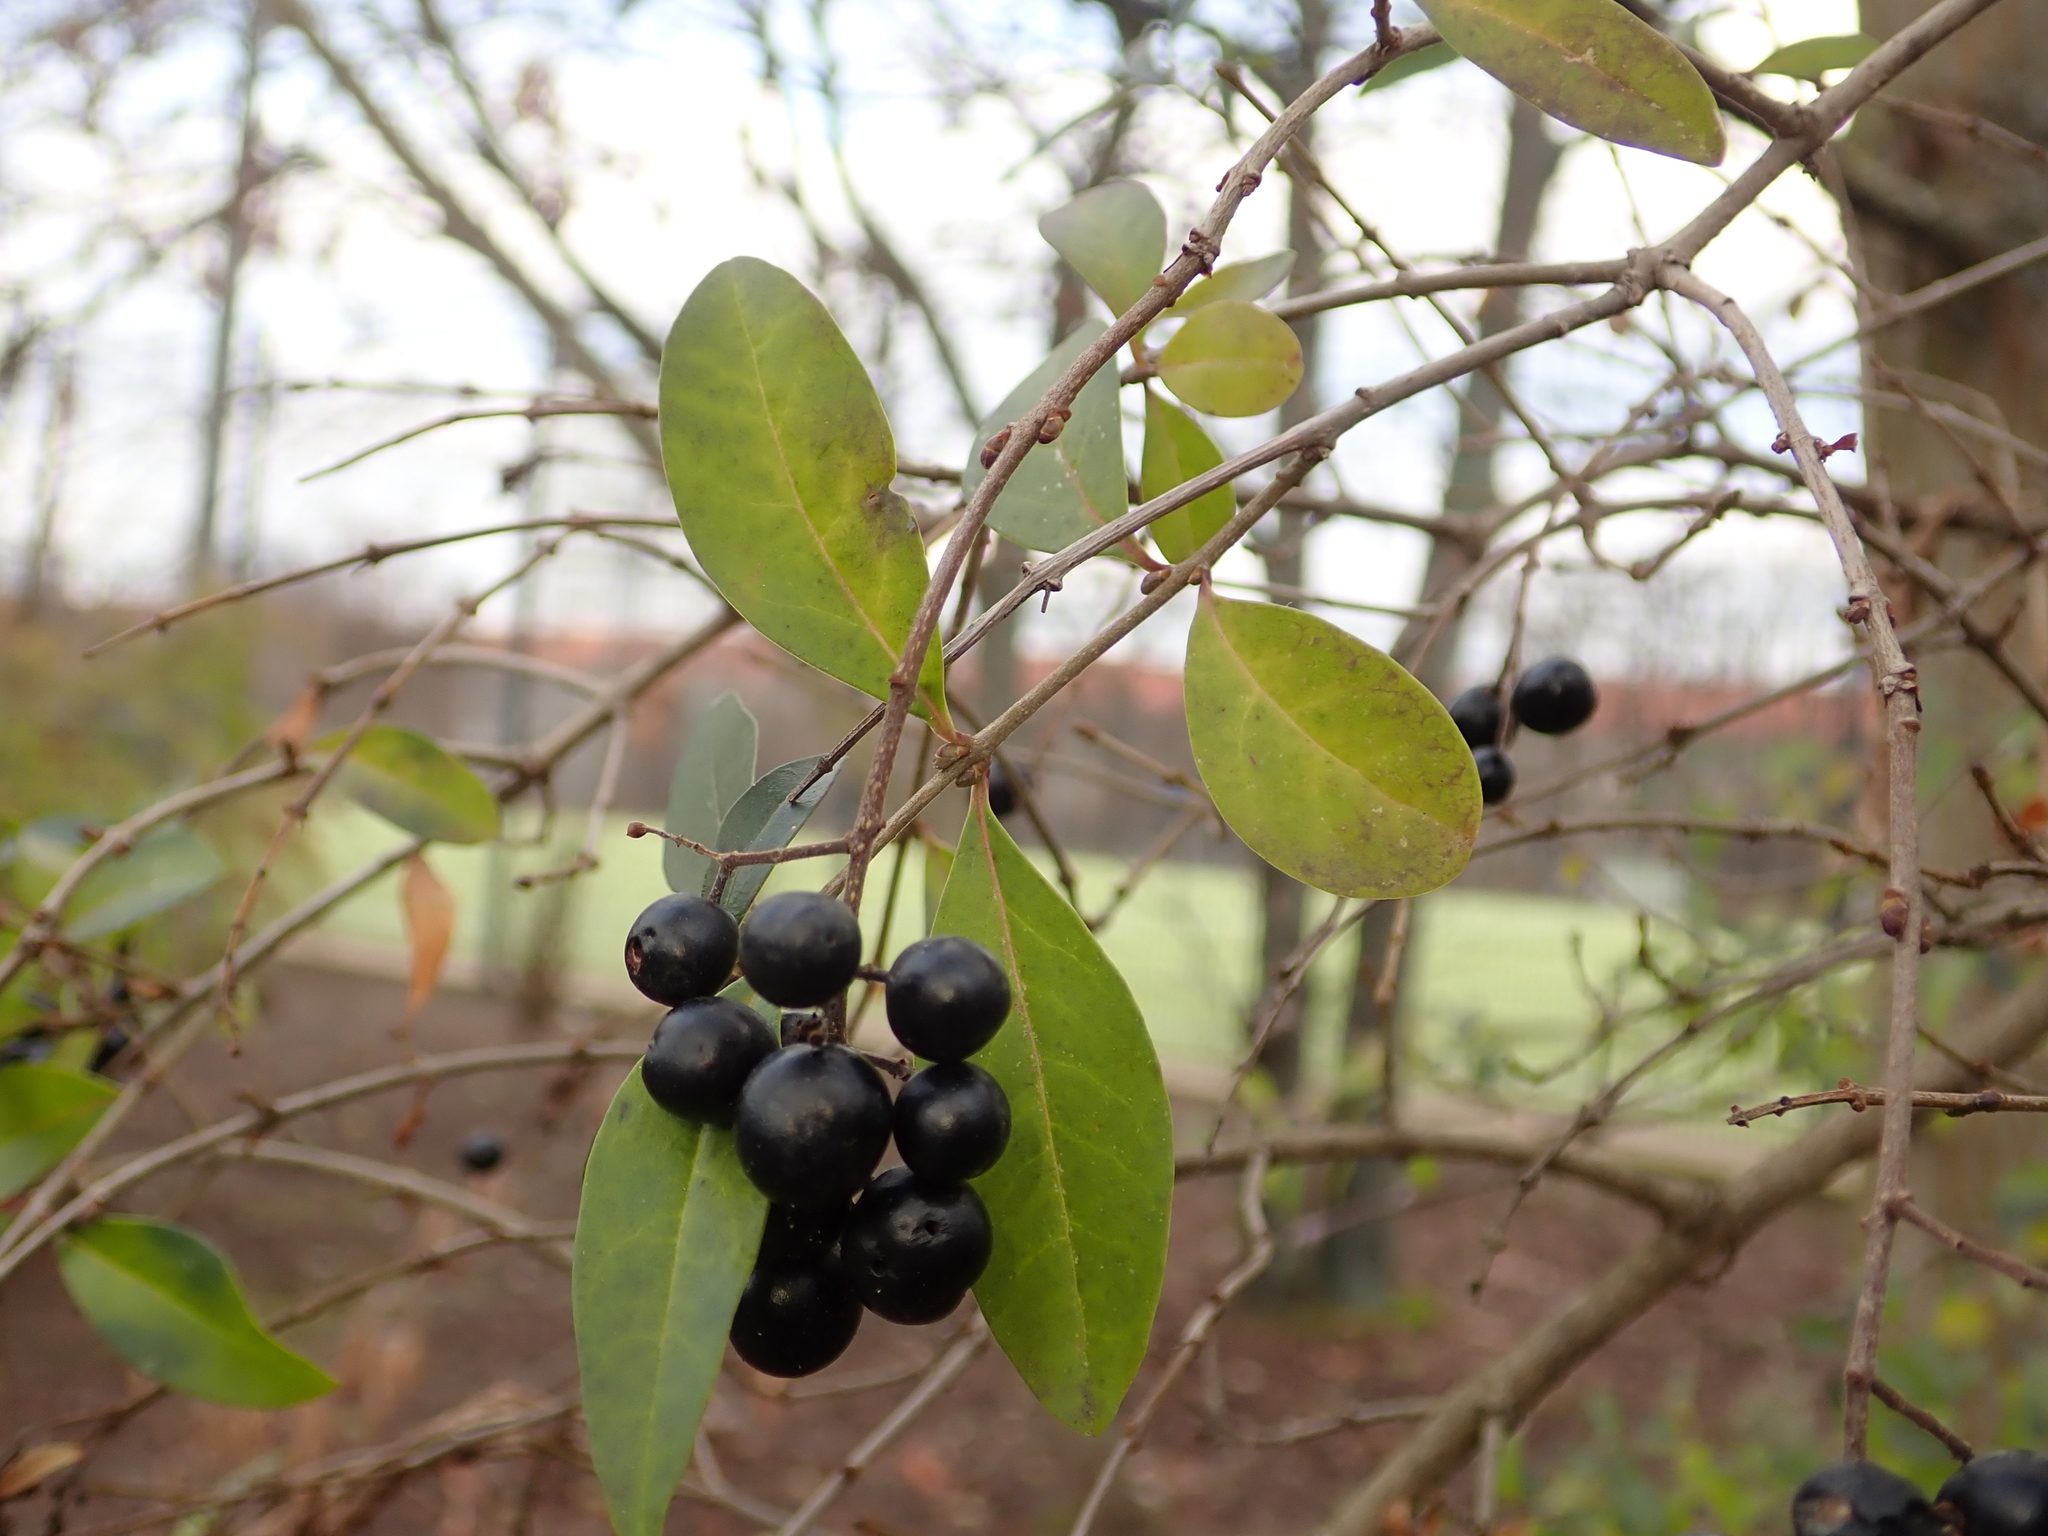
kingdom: Plantae
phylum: Tracheophyta
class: Magnoliopsida
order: Lamiales
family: Oleaceae
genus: Ligustrum
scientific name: Ligustrum vulgare
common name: Wild privet
